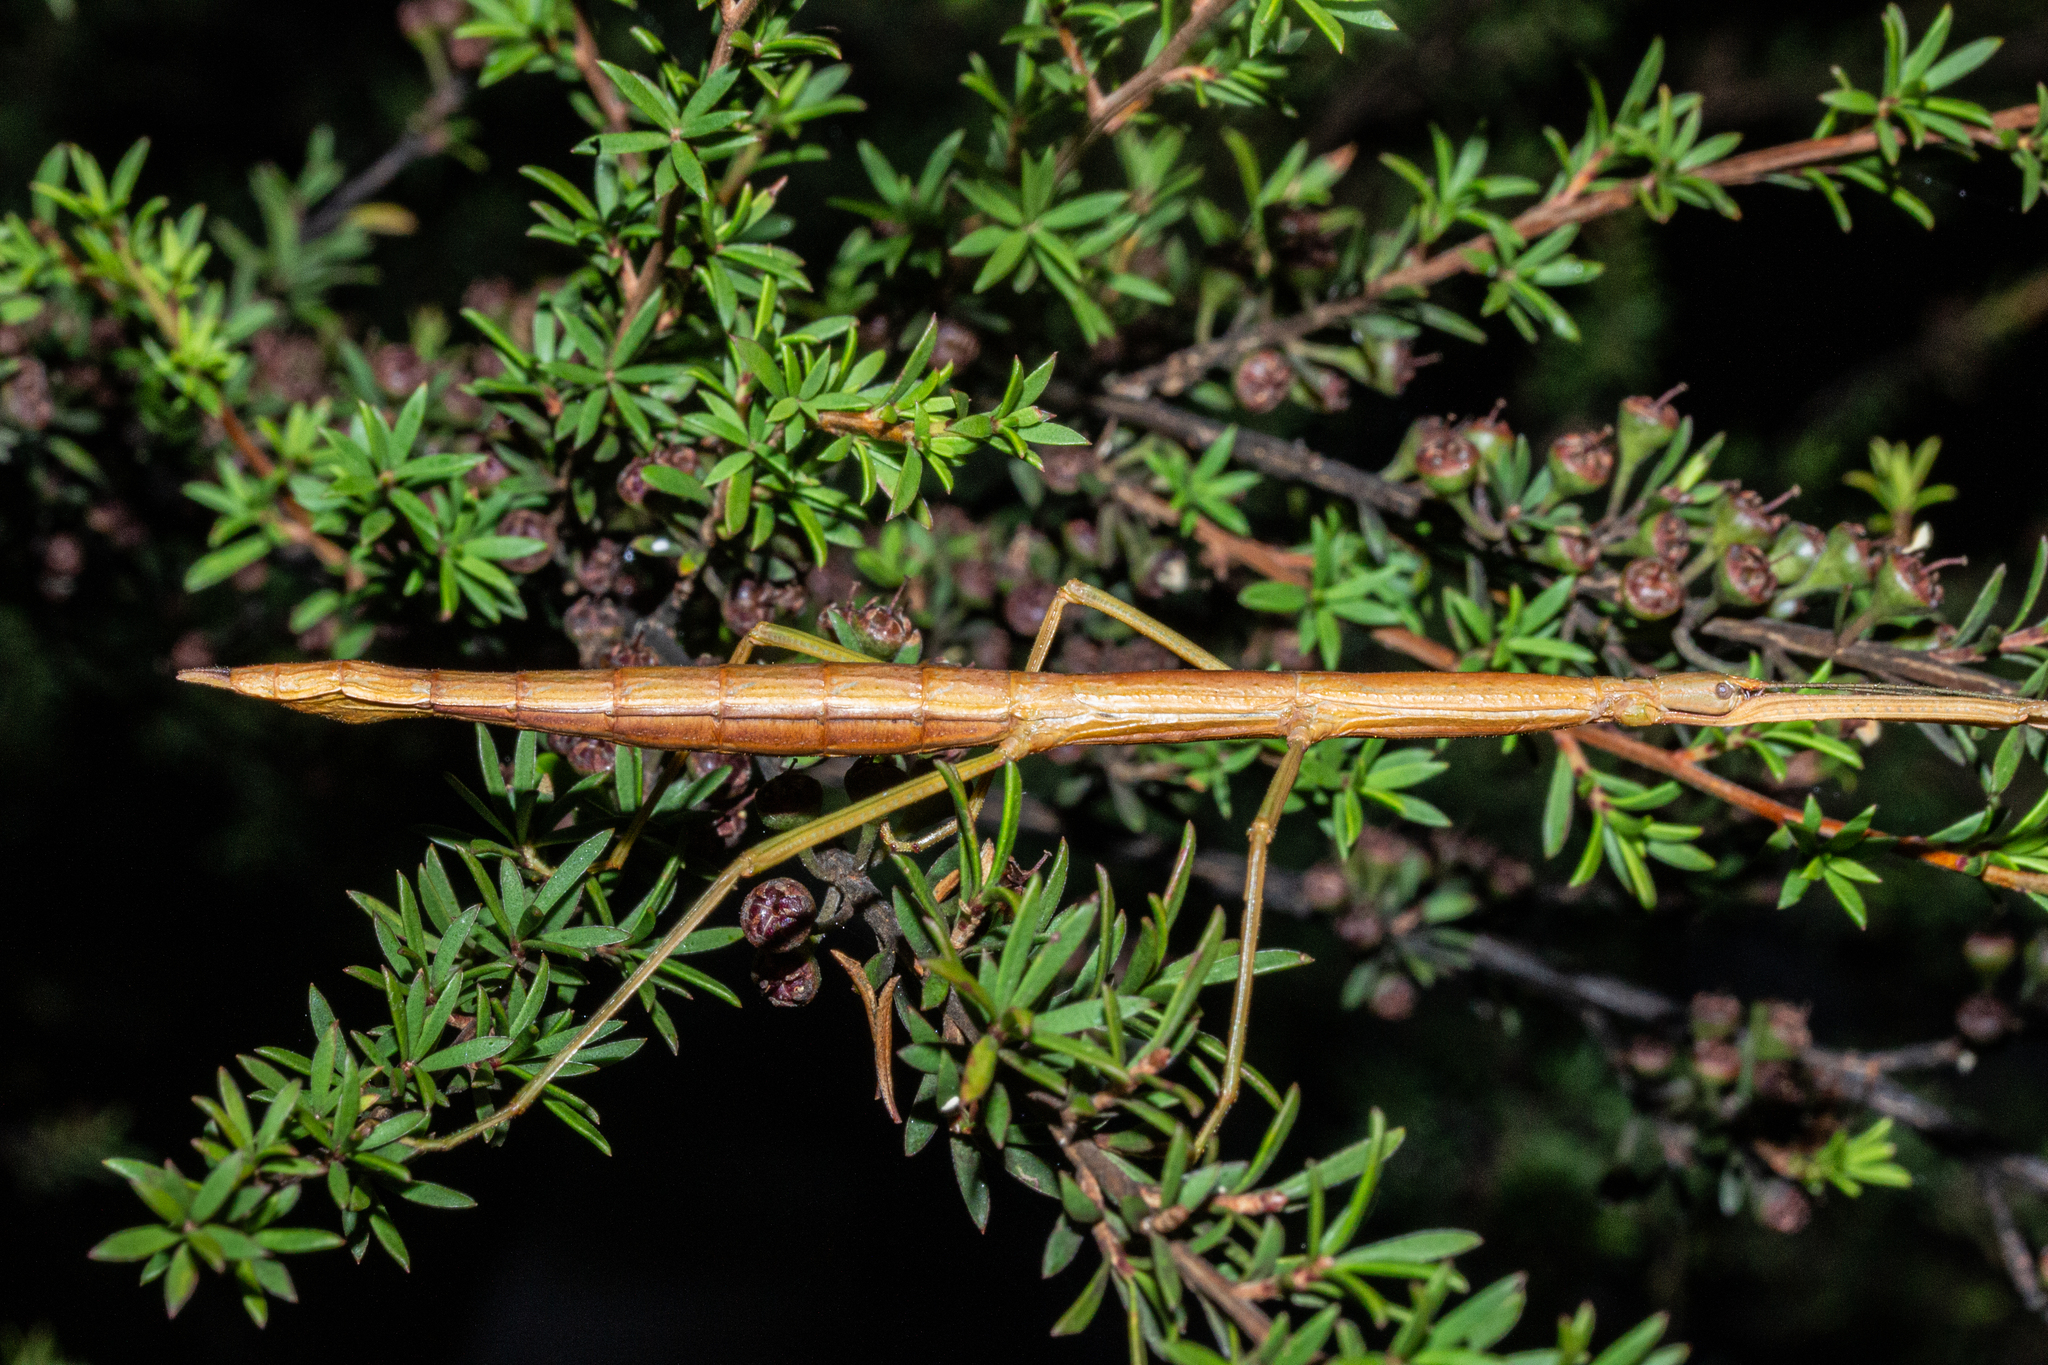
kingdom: Animalia
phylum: Arthropoda
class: Insecta
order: Phasmida
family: Phasmatidae
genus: Clitarchus
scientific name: Clitarchus hookeri
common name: Smooth stick insect
